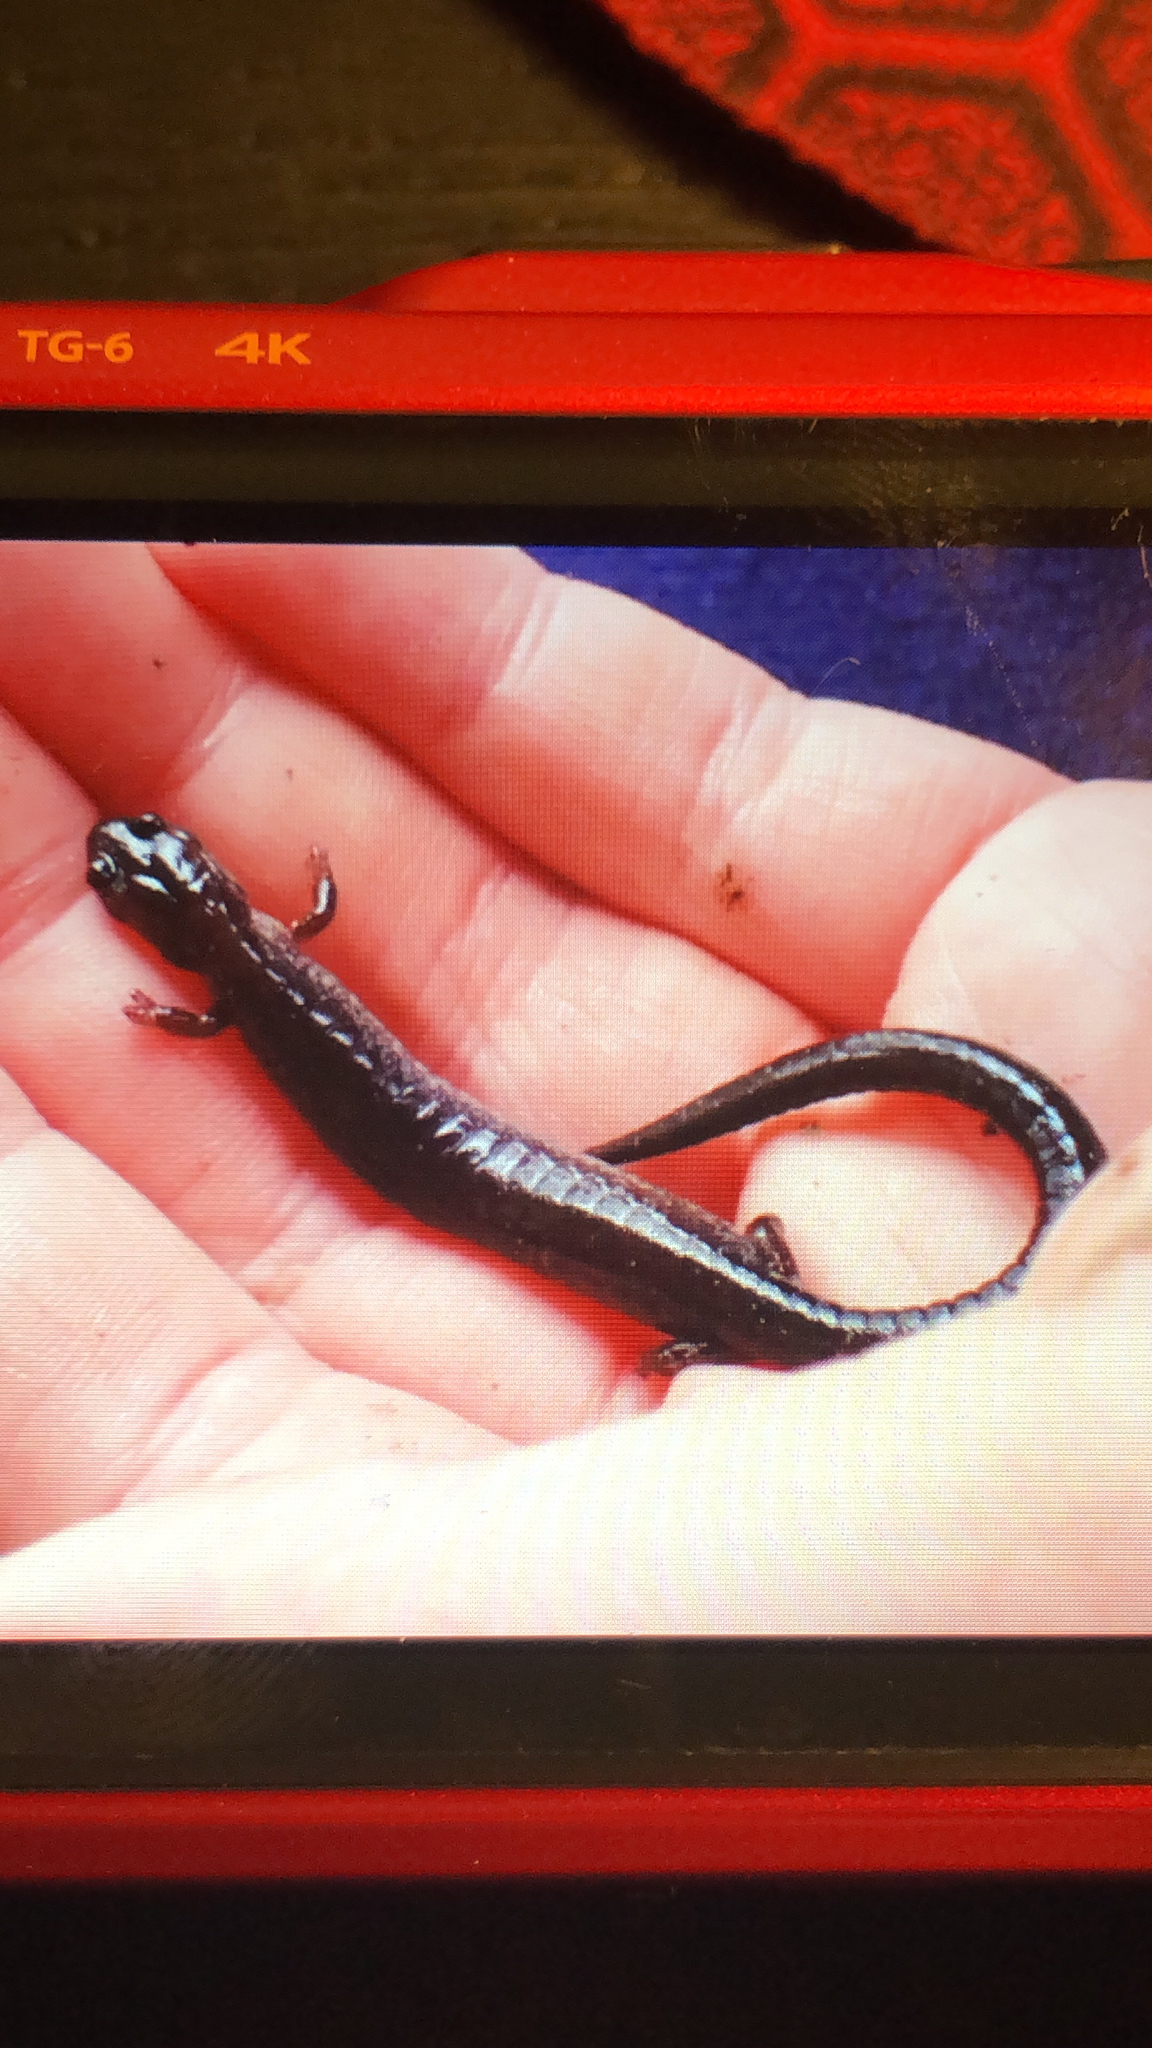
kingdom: Animalia
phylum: Chordata
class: Amphibia
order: Caudata
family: Plethodontidae
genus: Plethodon
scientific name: Plethodon cinereus
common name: Redback salamander
